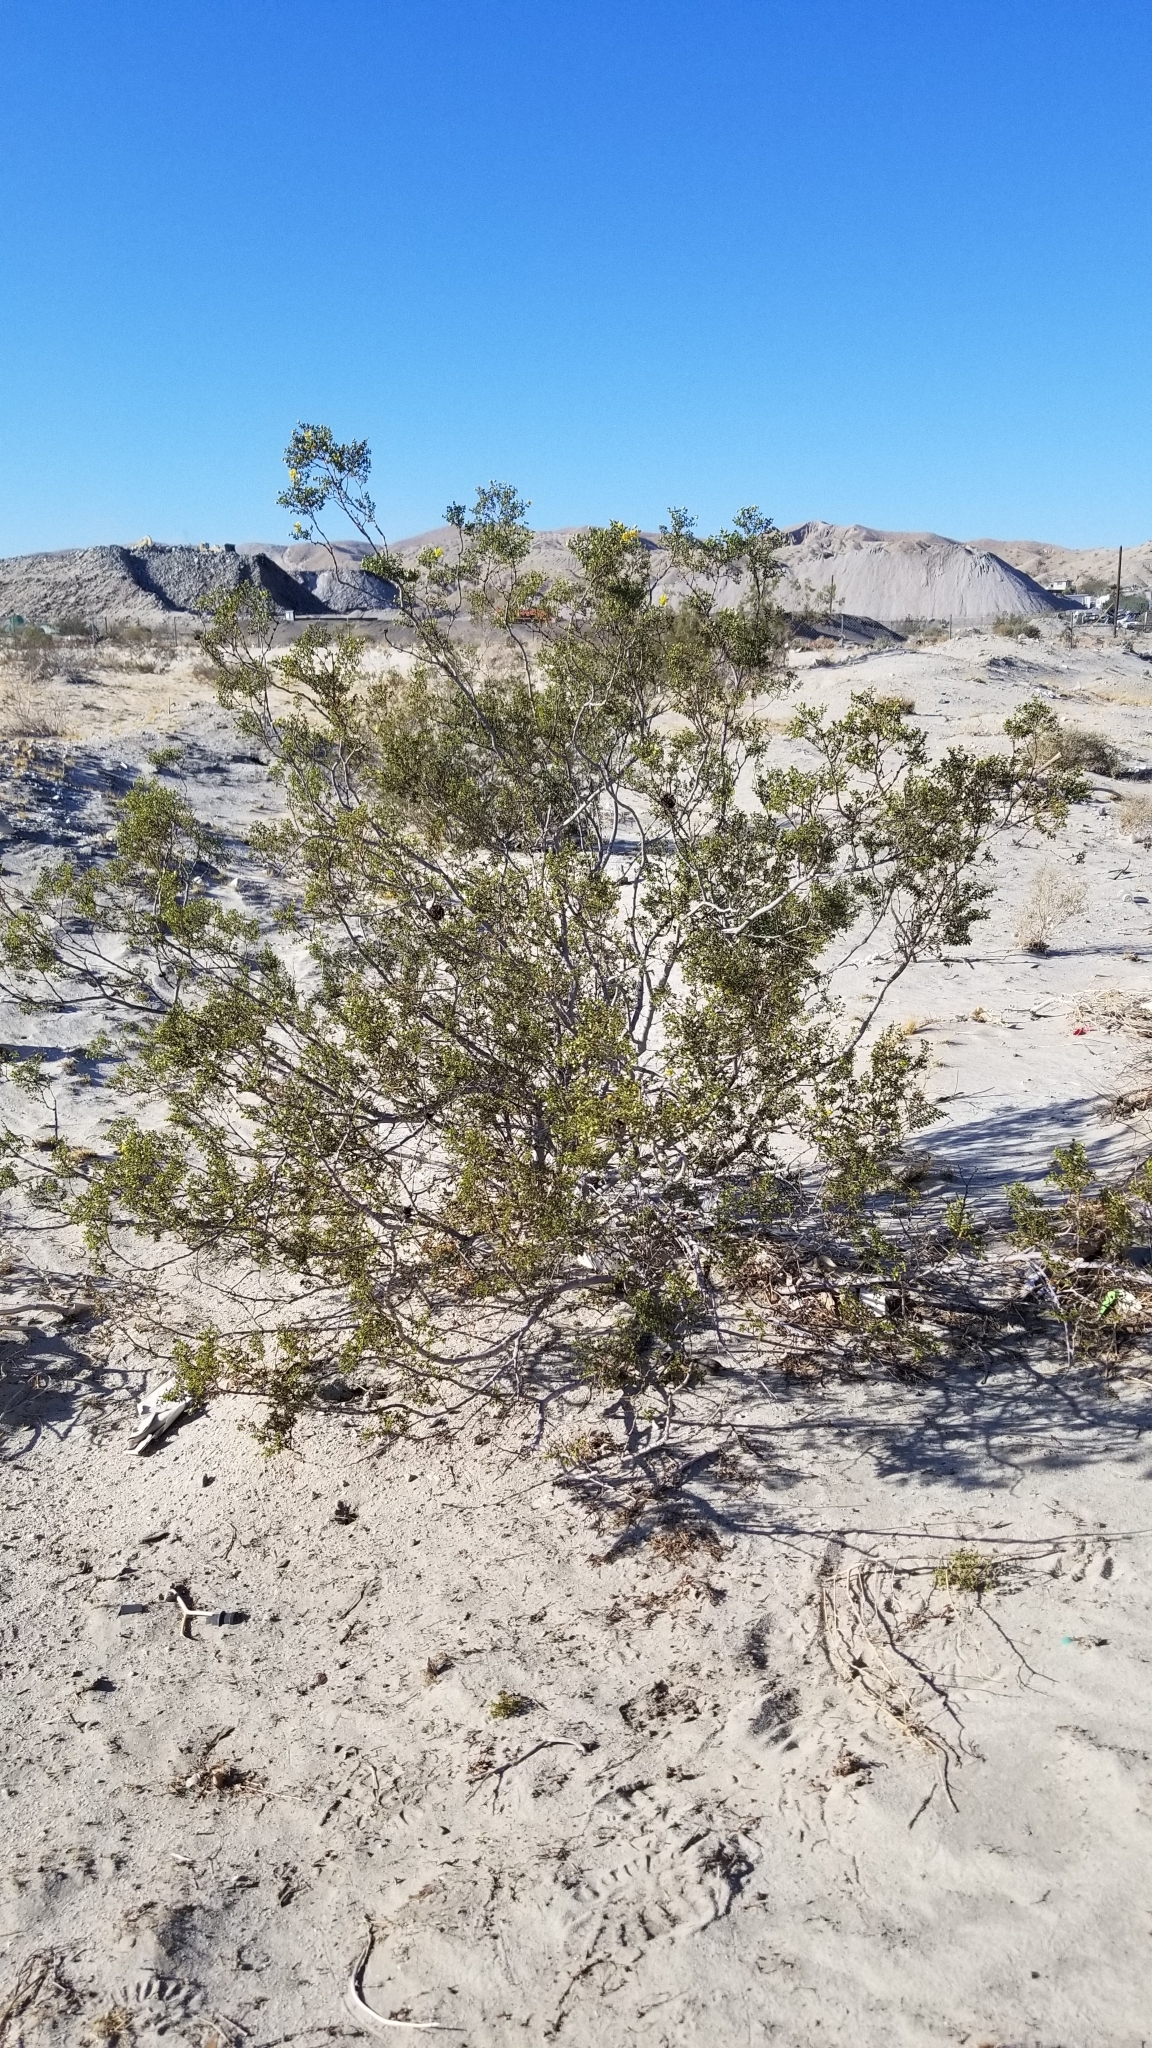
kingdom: Plantae
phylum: Tracheophyta
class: Magnoliopsida
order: Zygophyllales
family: Zygophyllaceae
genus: Larrea
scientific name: Larrea tridentata
